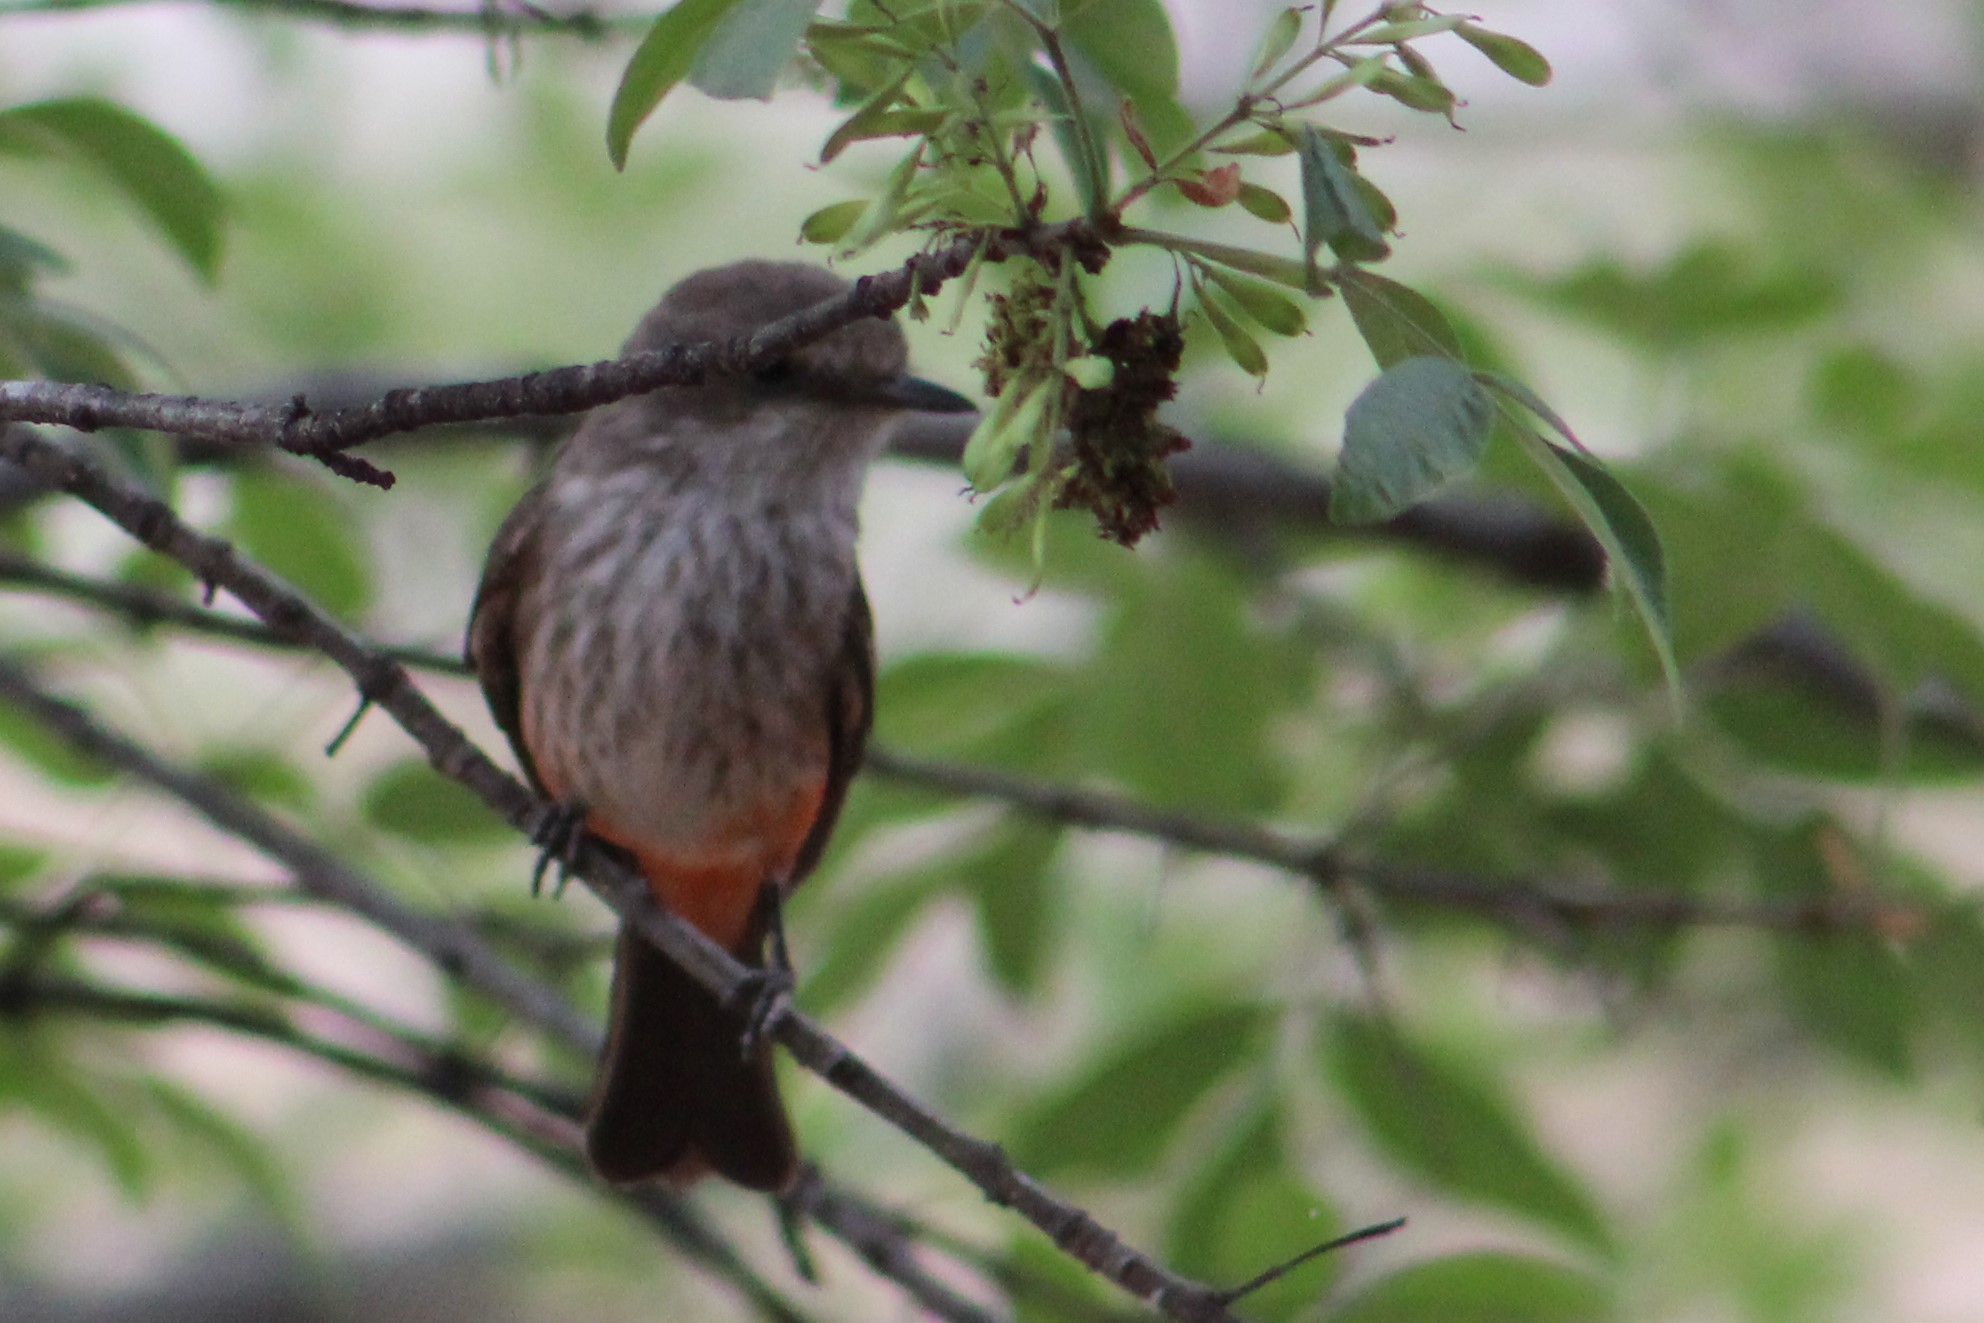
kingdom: Animalia
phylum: Chordata
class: Aves
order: Passeriformes
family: Tyrannidae
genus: Pyrocephalus
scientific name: Pyrocephalus rubinus
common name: Vermilion flycatcher
